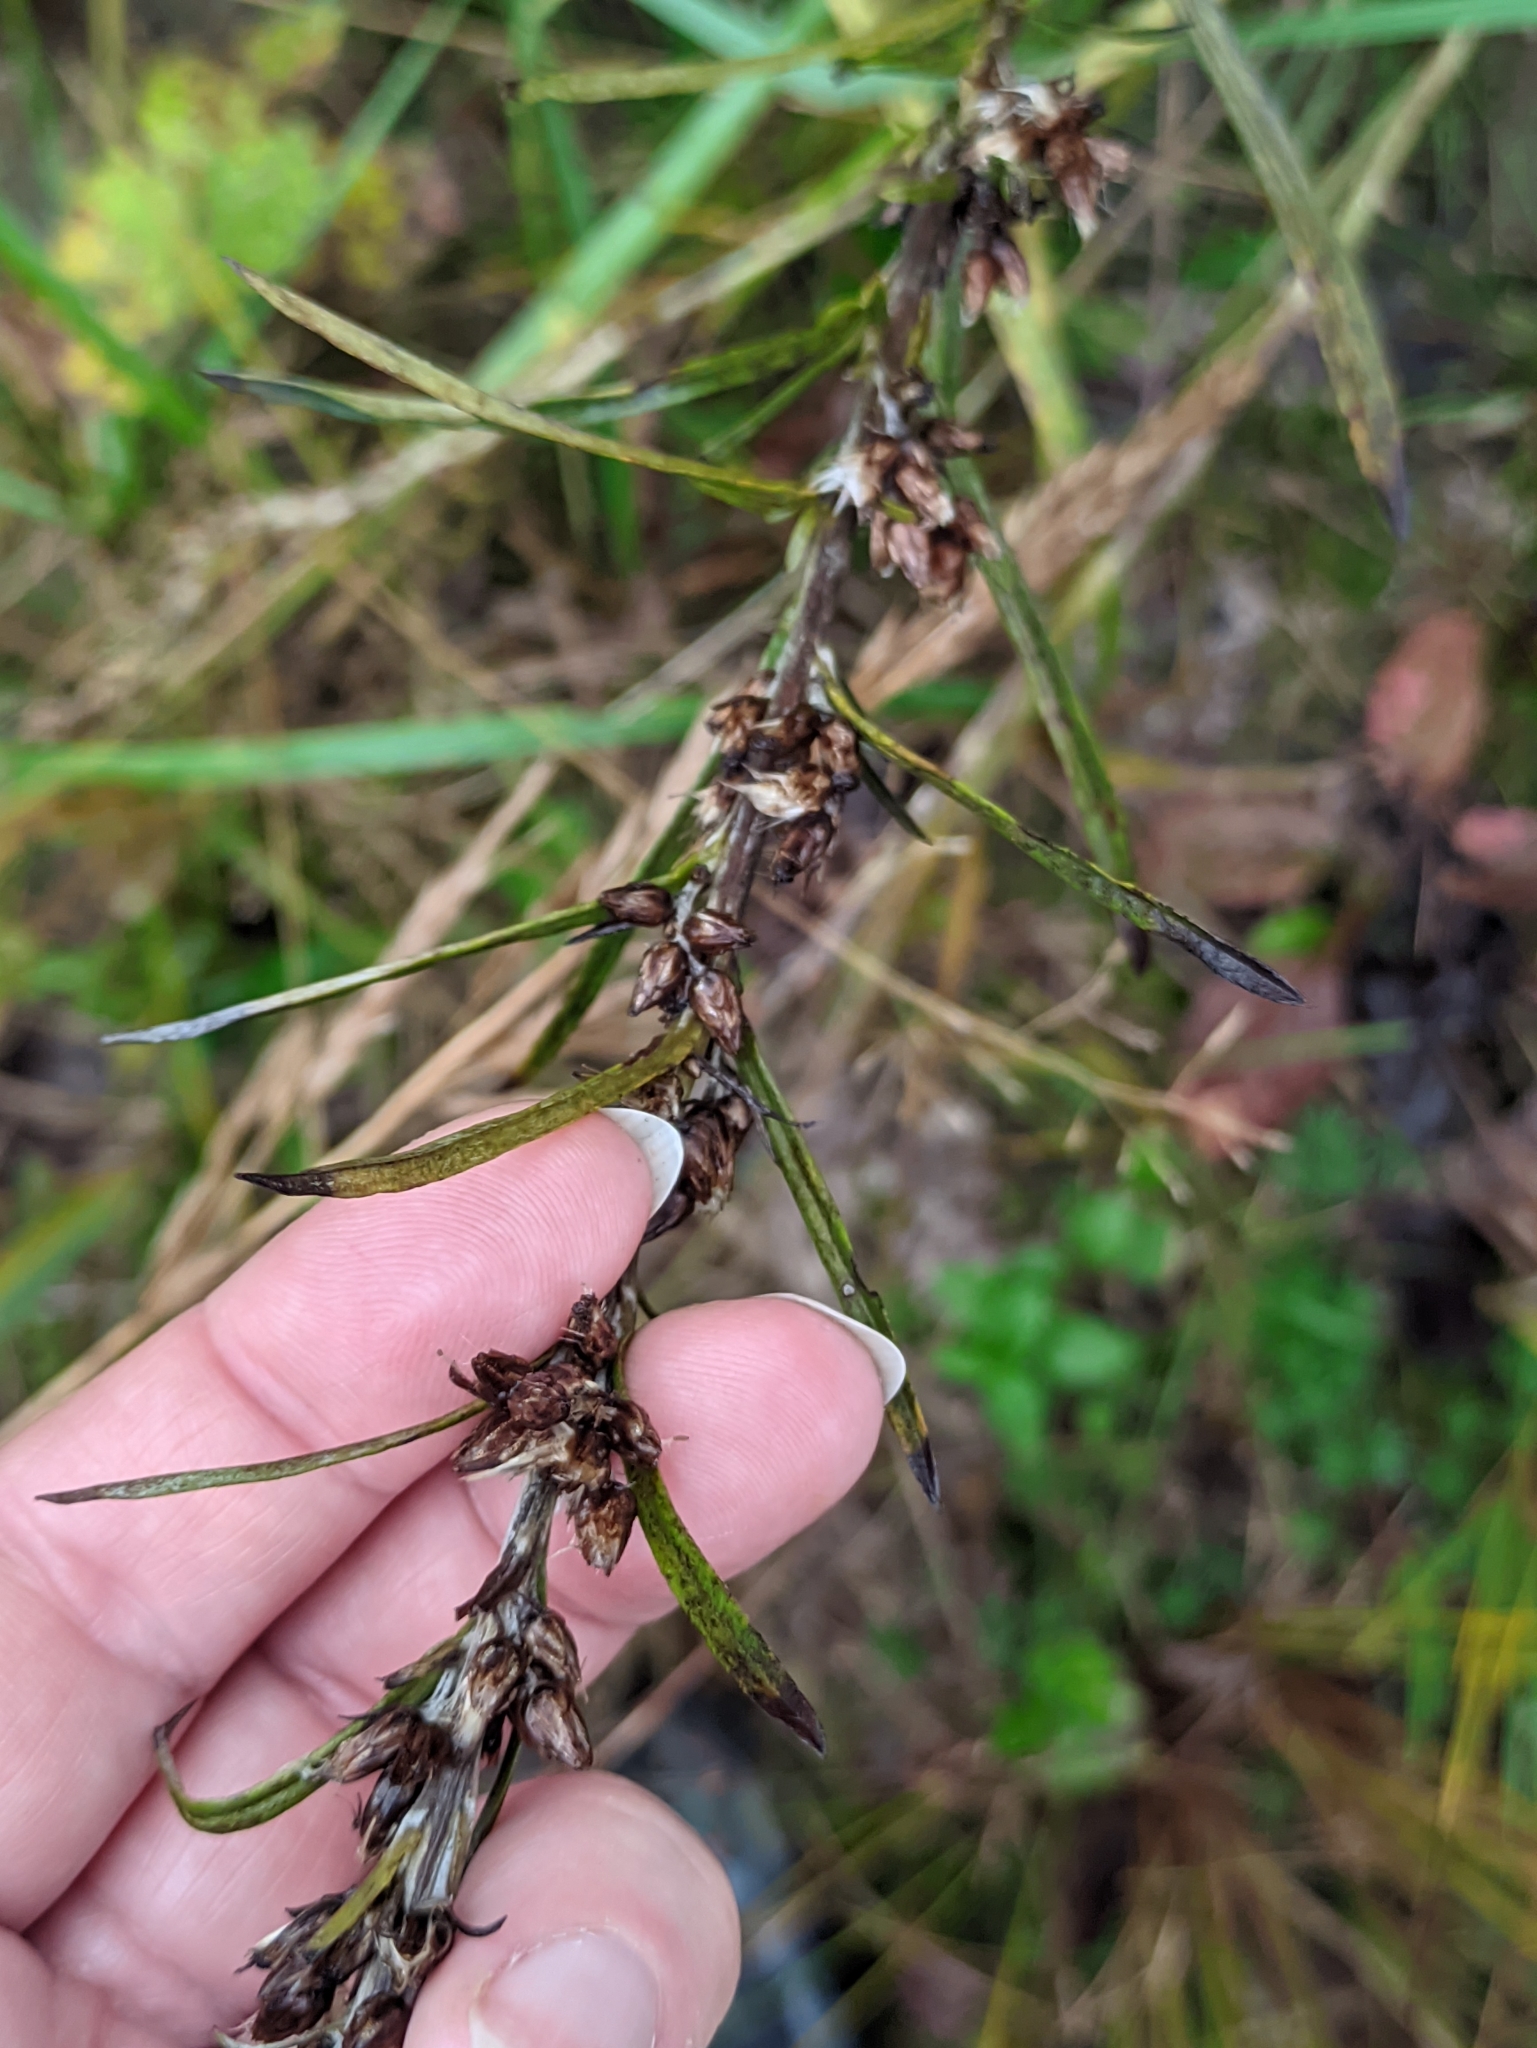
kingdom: Plantae
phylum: Tracheophyta
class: Magnoliopsida
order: Asterales
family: Asteraceae
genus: Omalotheca
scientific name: Omalotheca sylvatica
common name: Heath cudweed
